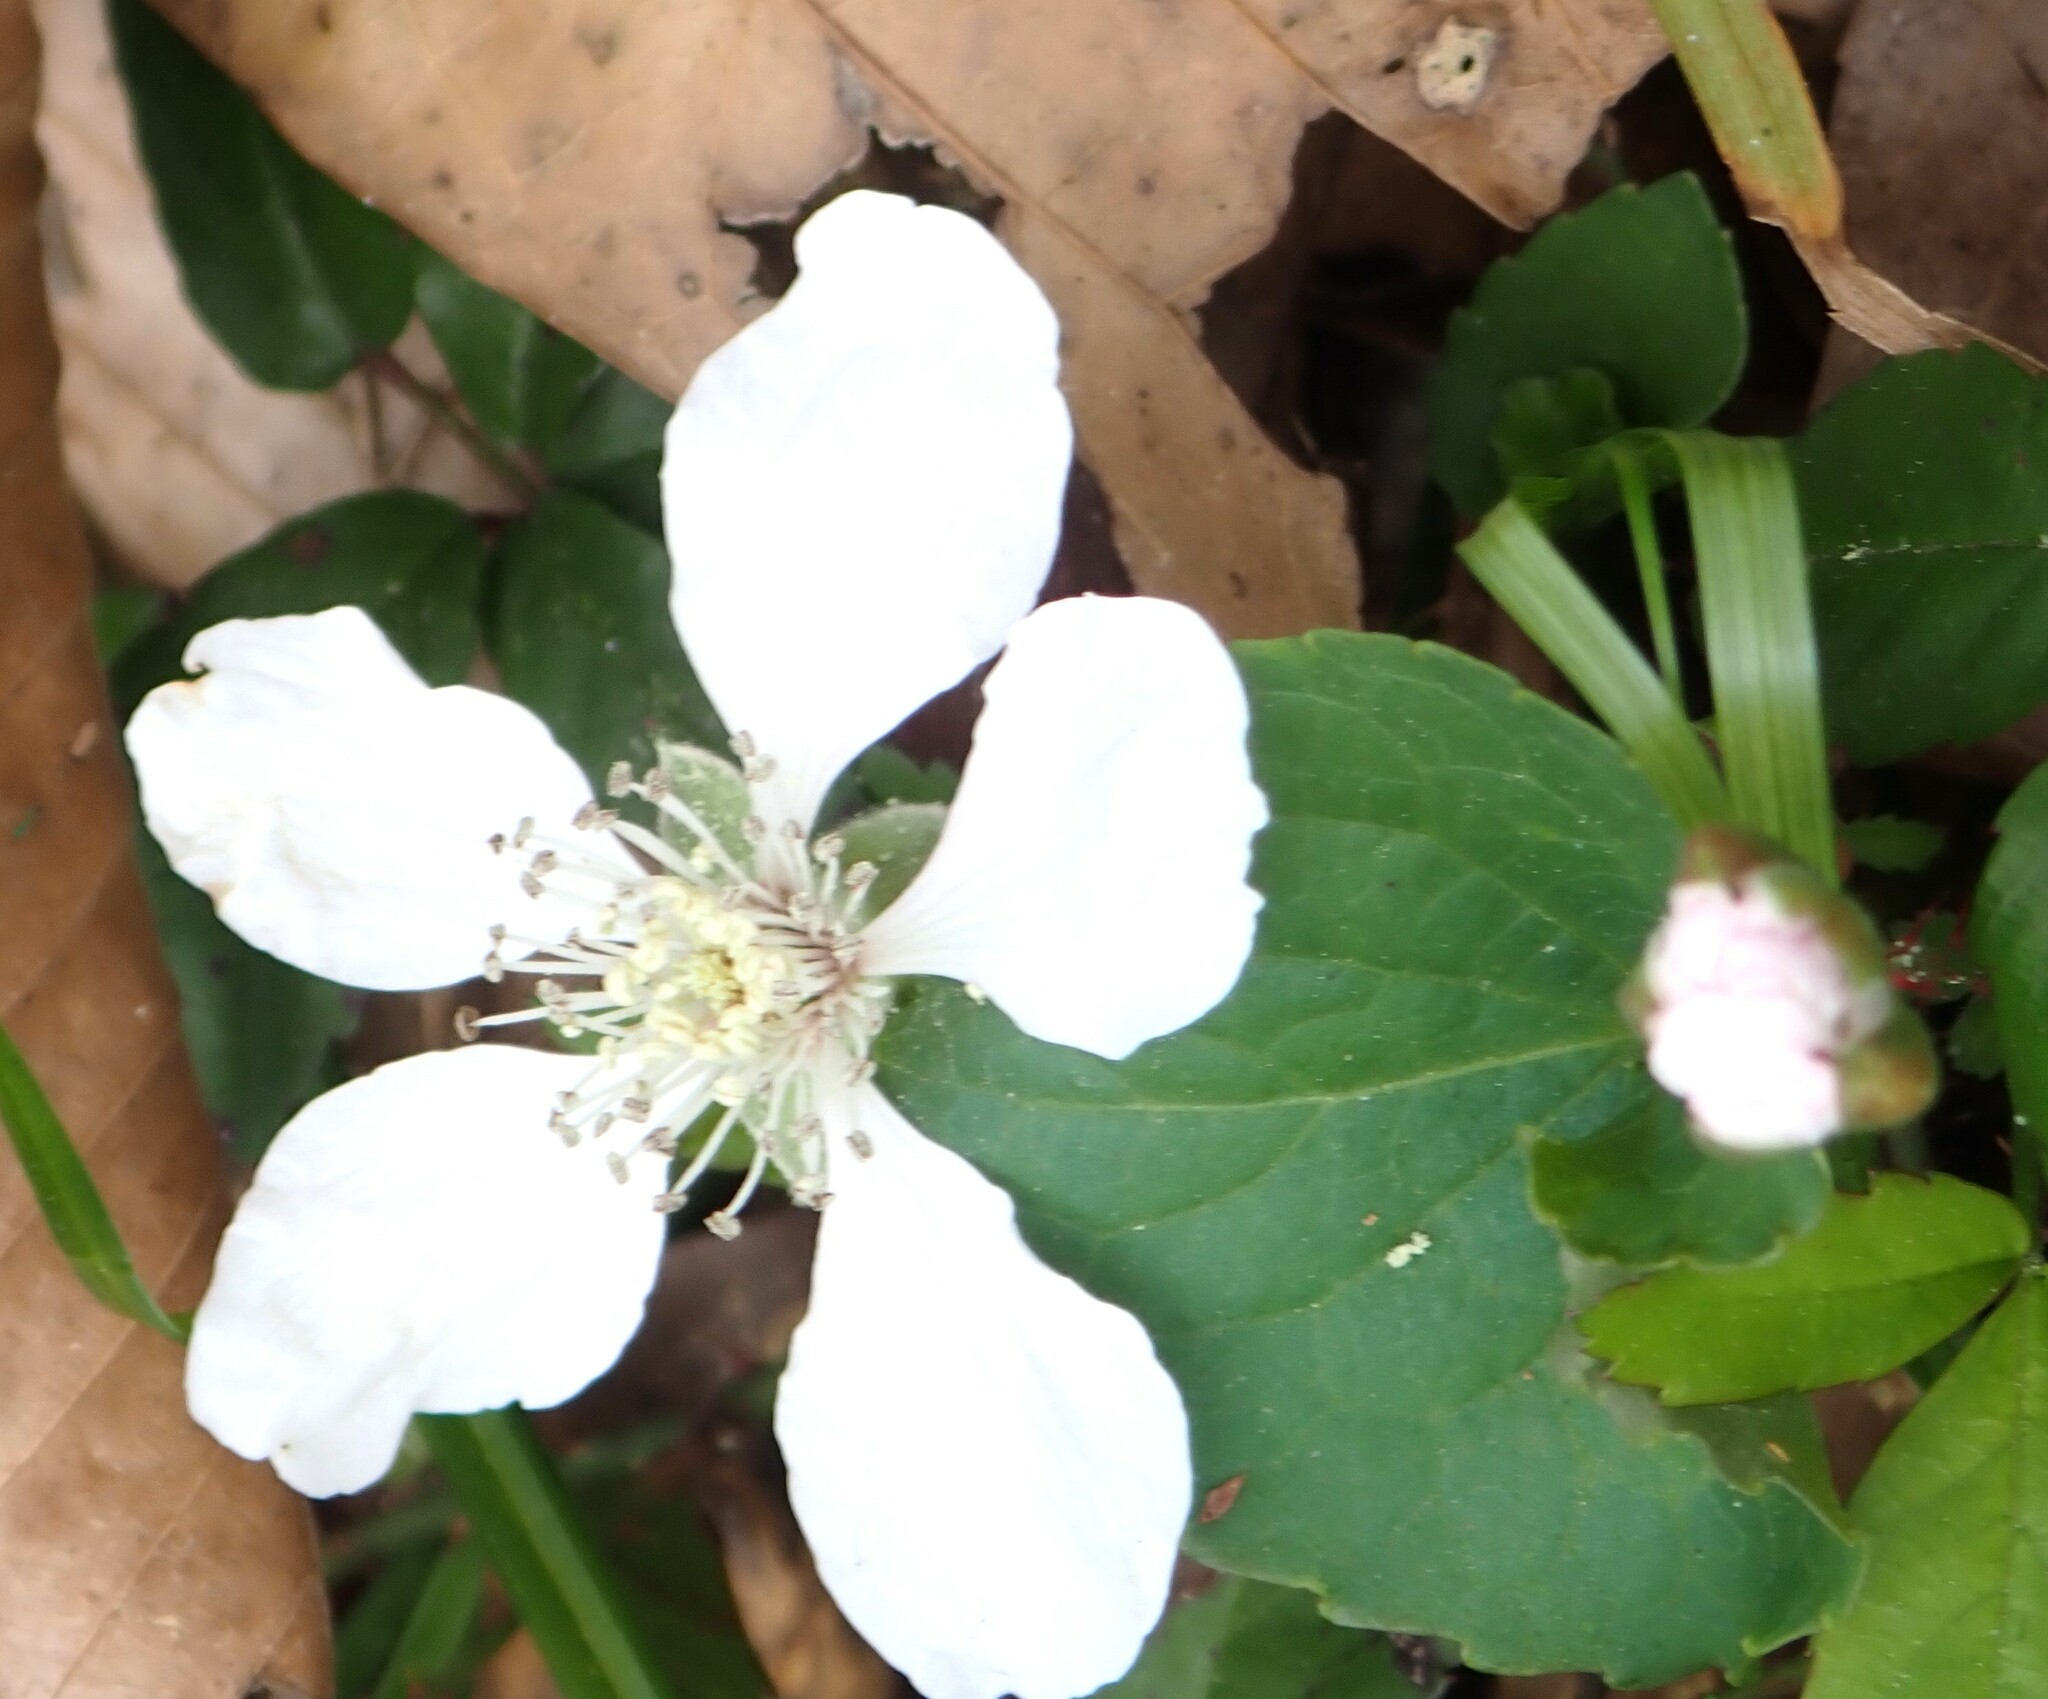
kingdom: Plantae
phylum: Tracheophyta
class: Magnoliopsida
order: Rosales
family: Rosaceae
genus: Rubus
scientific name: Rubus trivialis
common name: Southern dewberry
